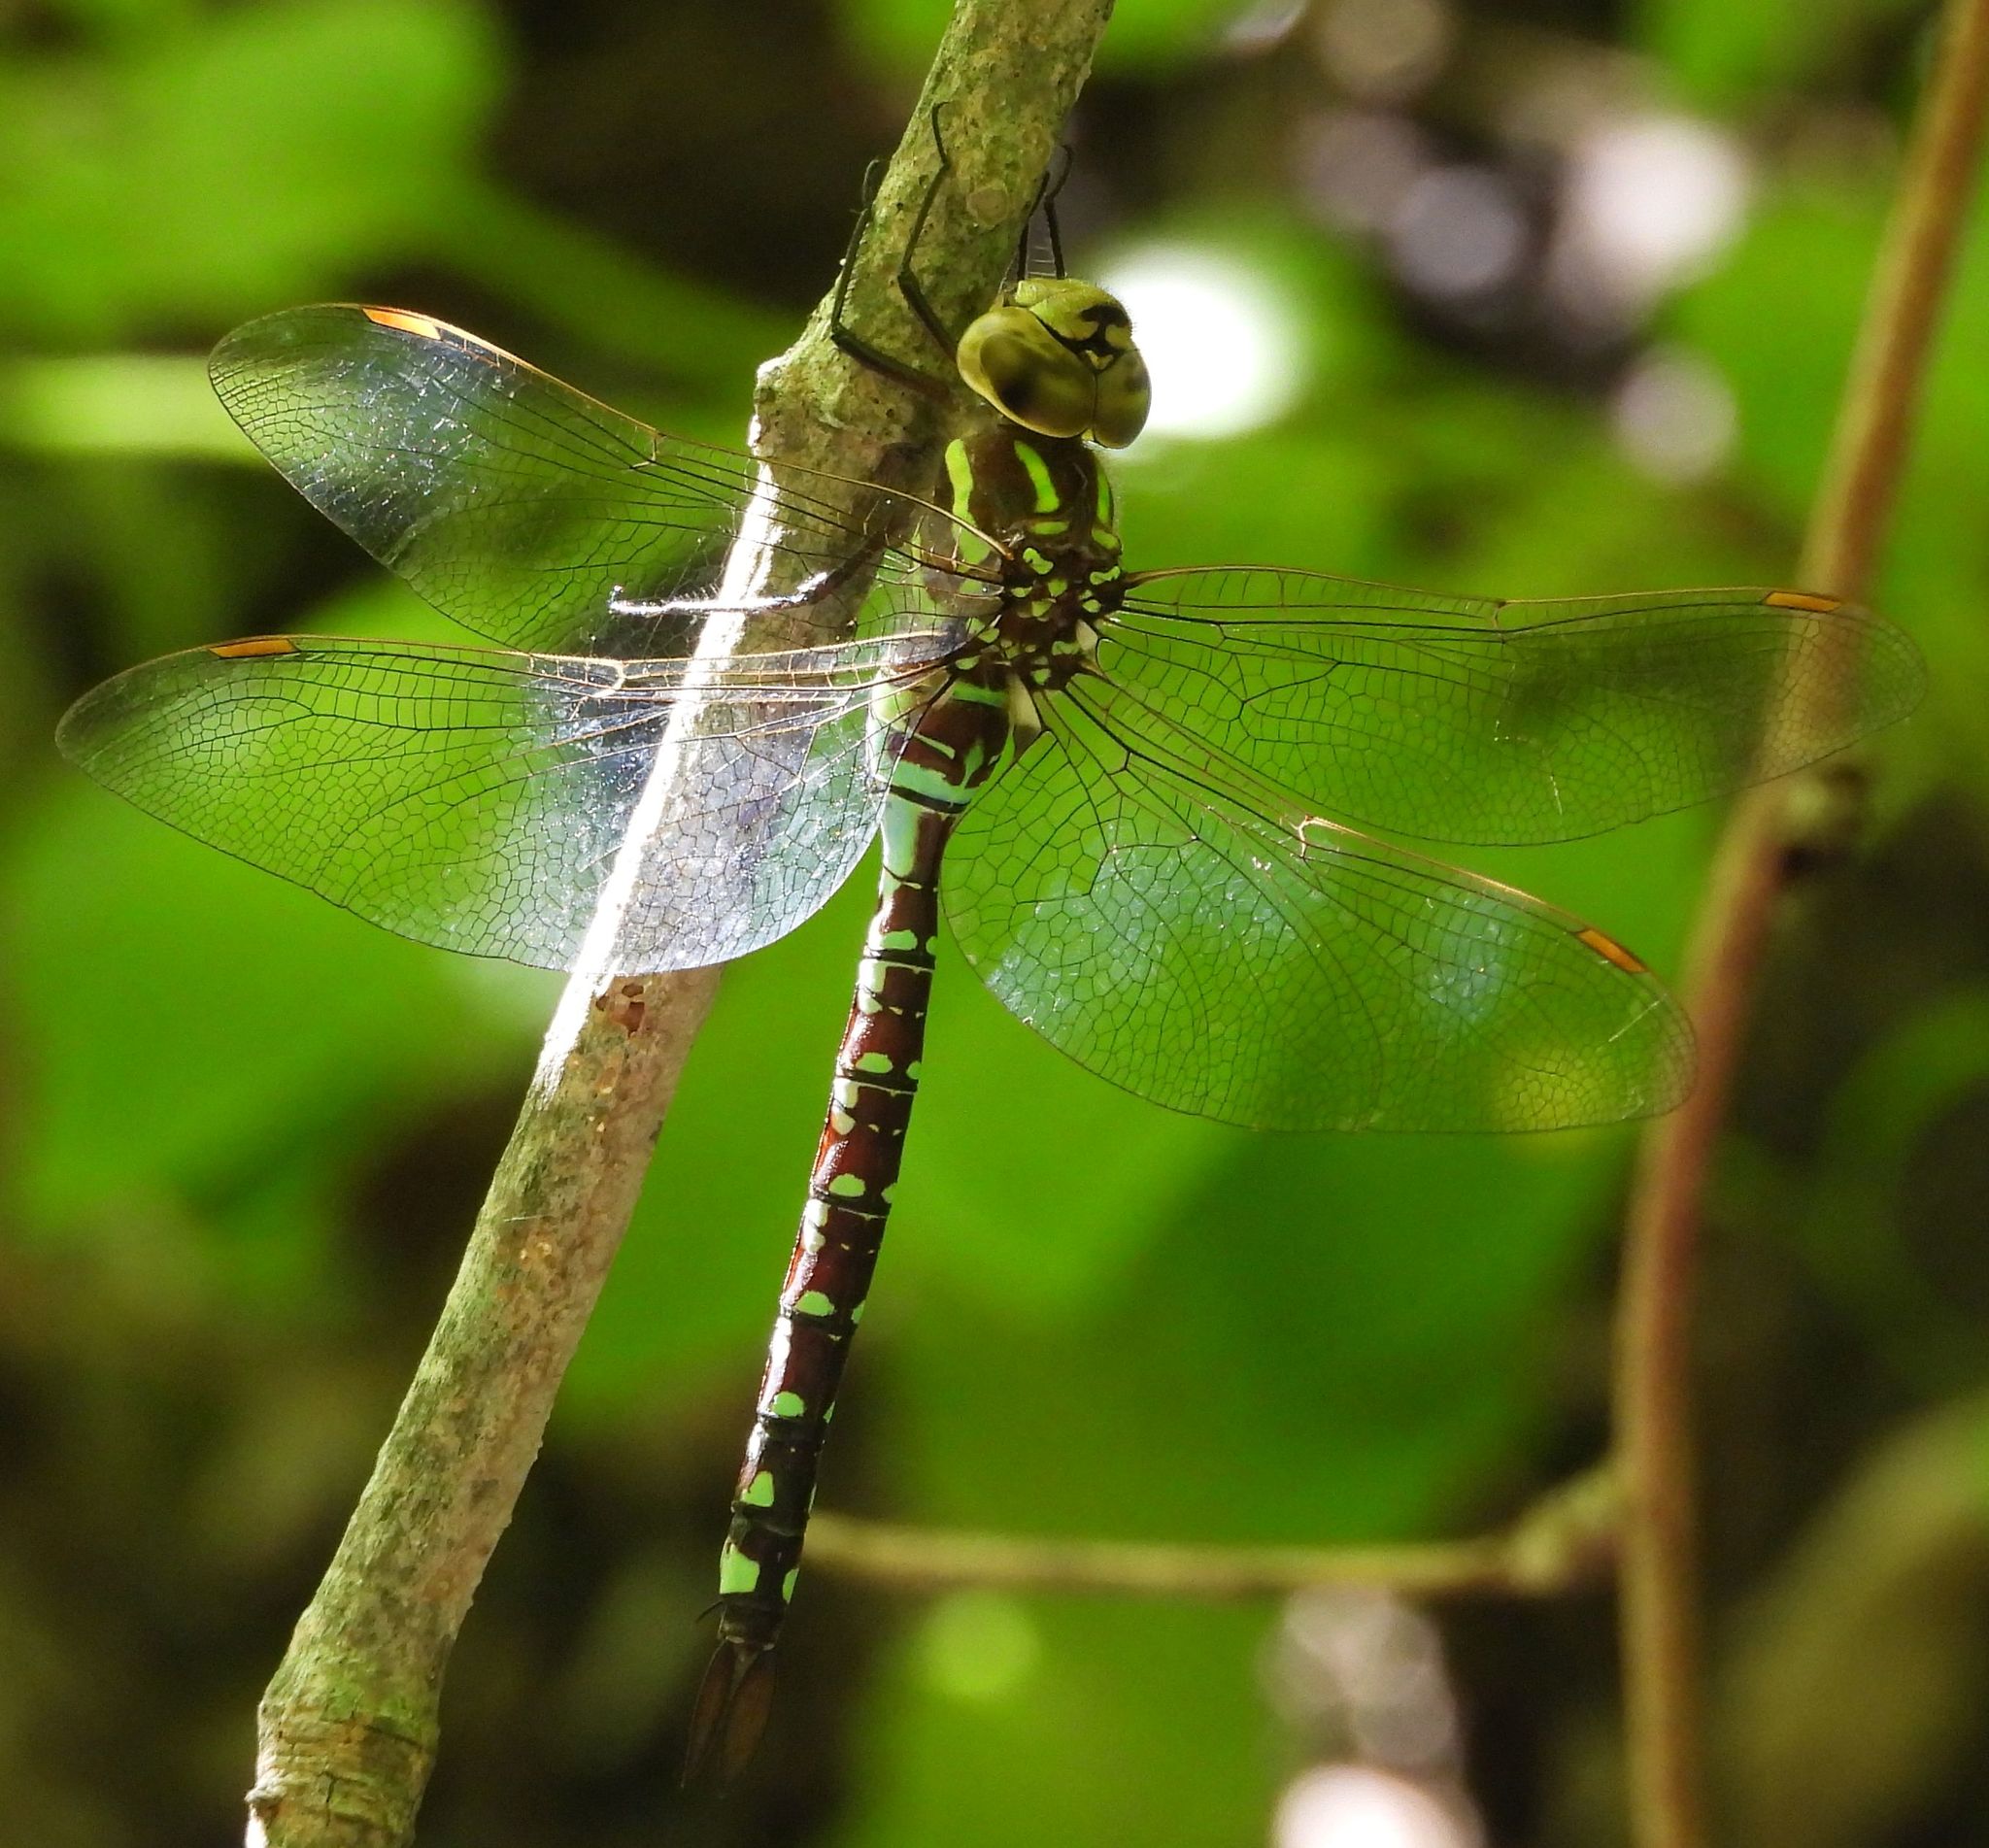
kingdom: Animalia
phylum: Arthropoda
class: Insecta
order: Odonata
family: Aeshnidae
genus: Aeshna
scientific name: Aeshna constricta
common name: Lance-tipped darner
